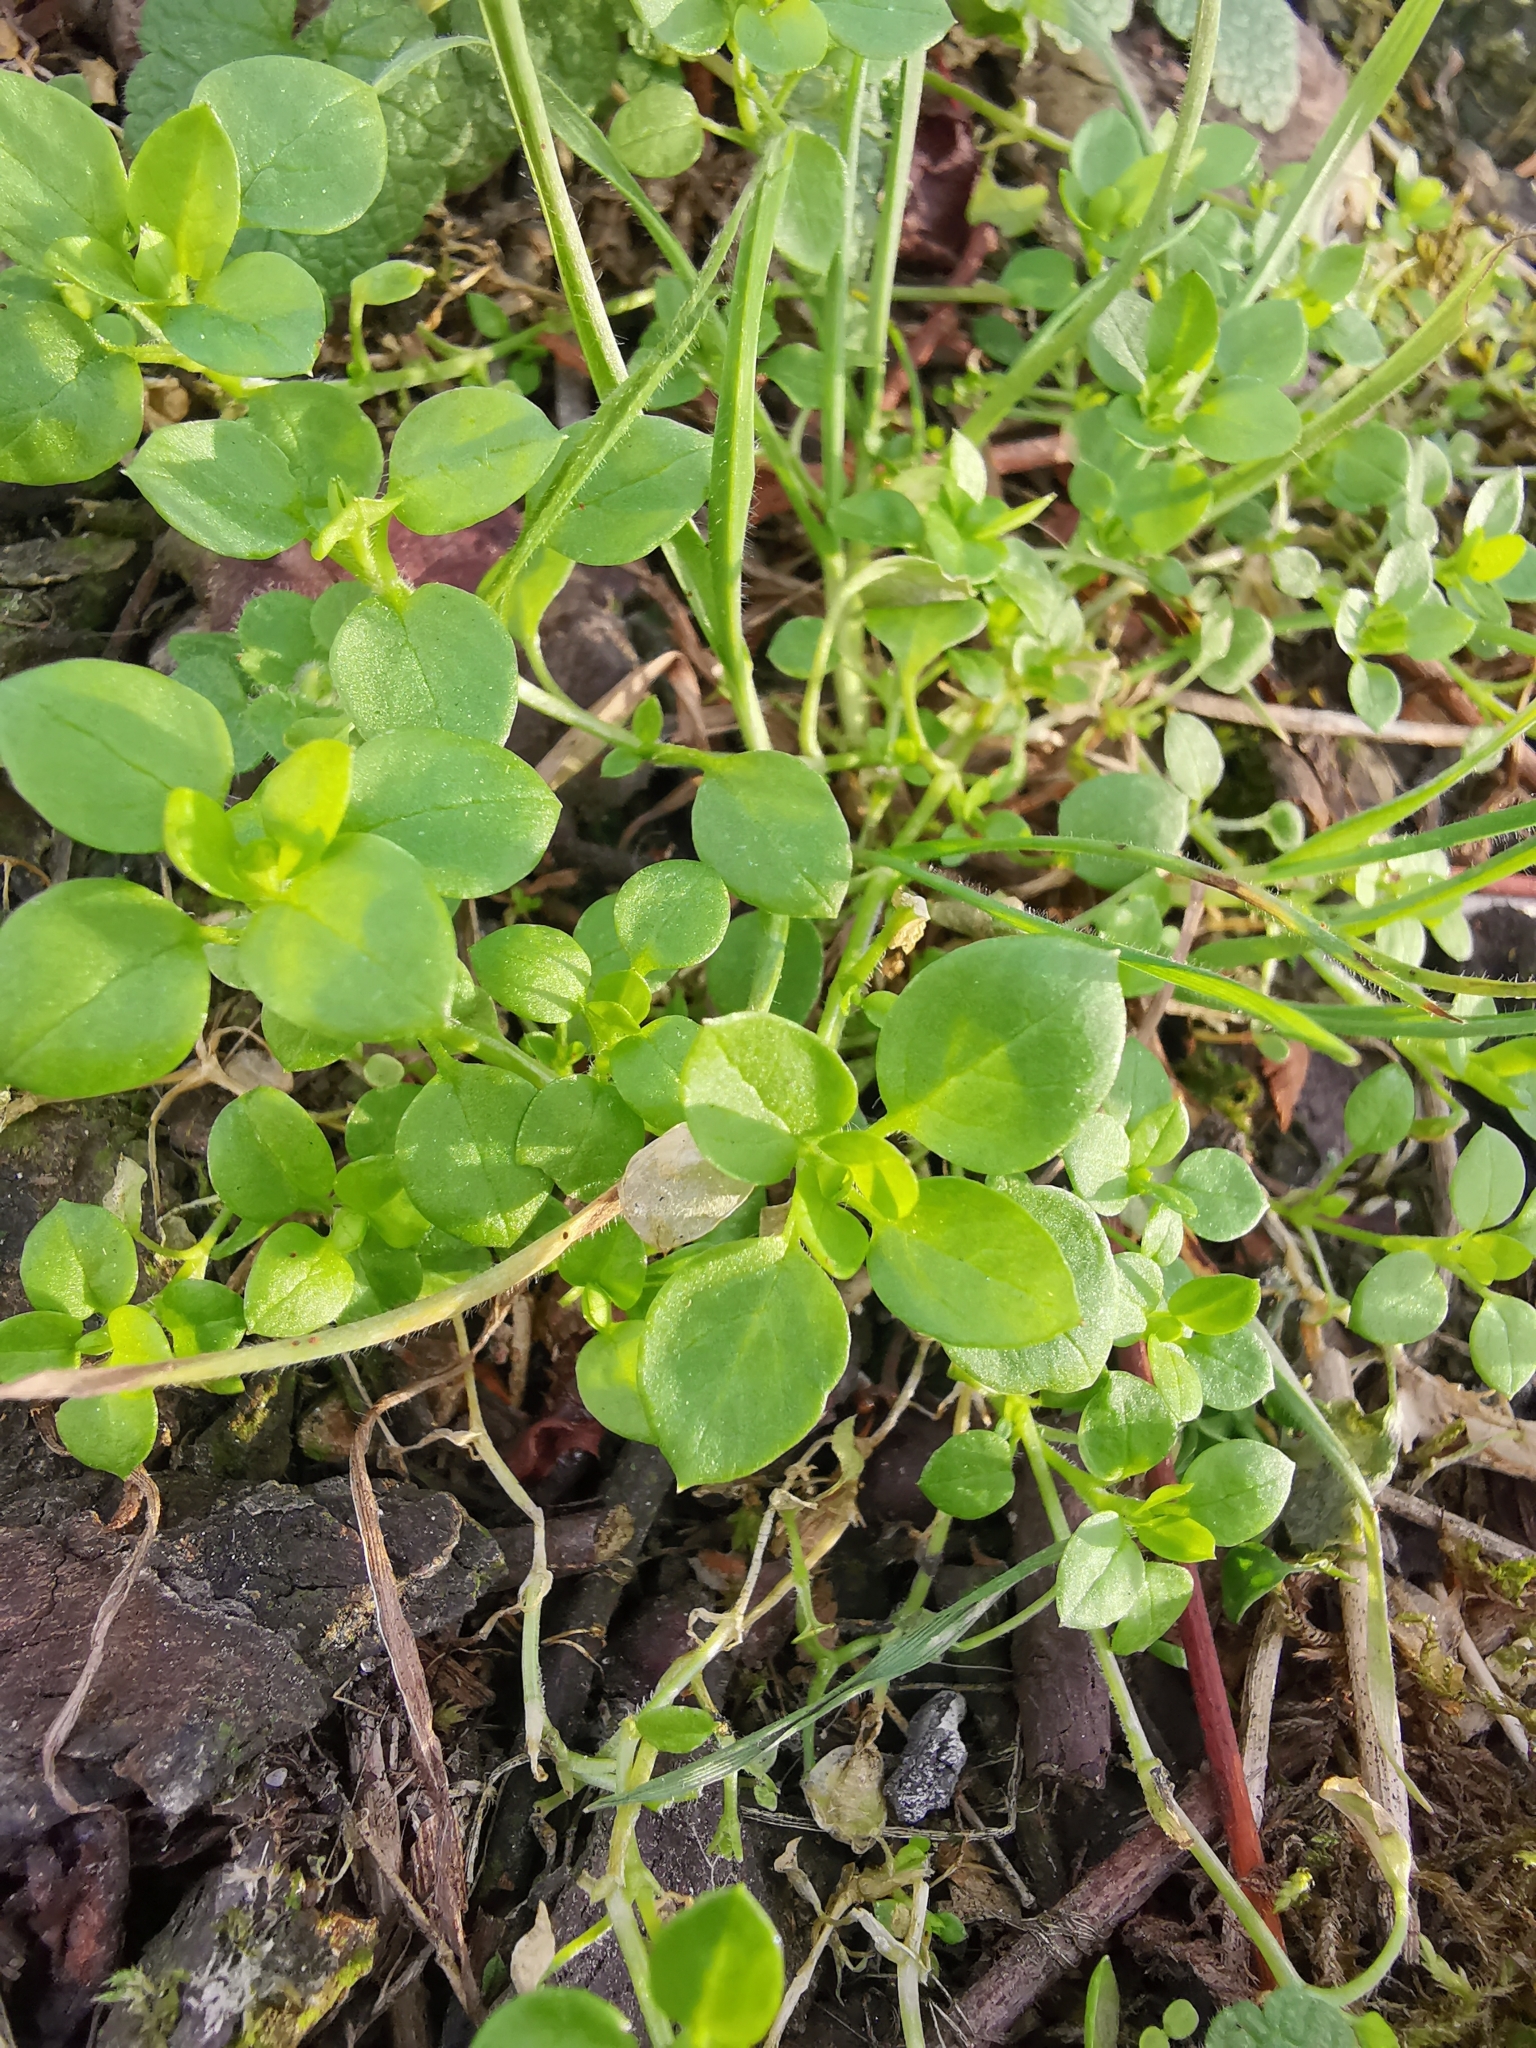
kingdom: Plantae
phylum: Tracheophyta
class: Magnoliopsida
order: Caryophyllales
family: Caryophyllaceae
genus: Stellaria
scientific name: Stellaria media
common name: Common chickweed
